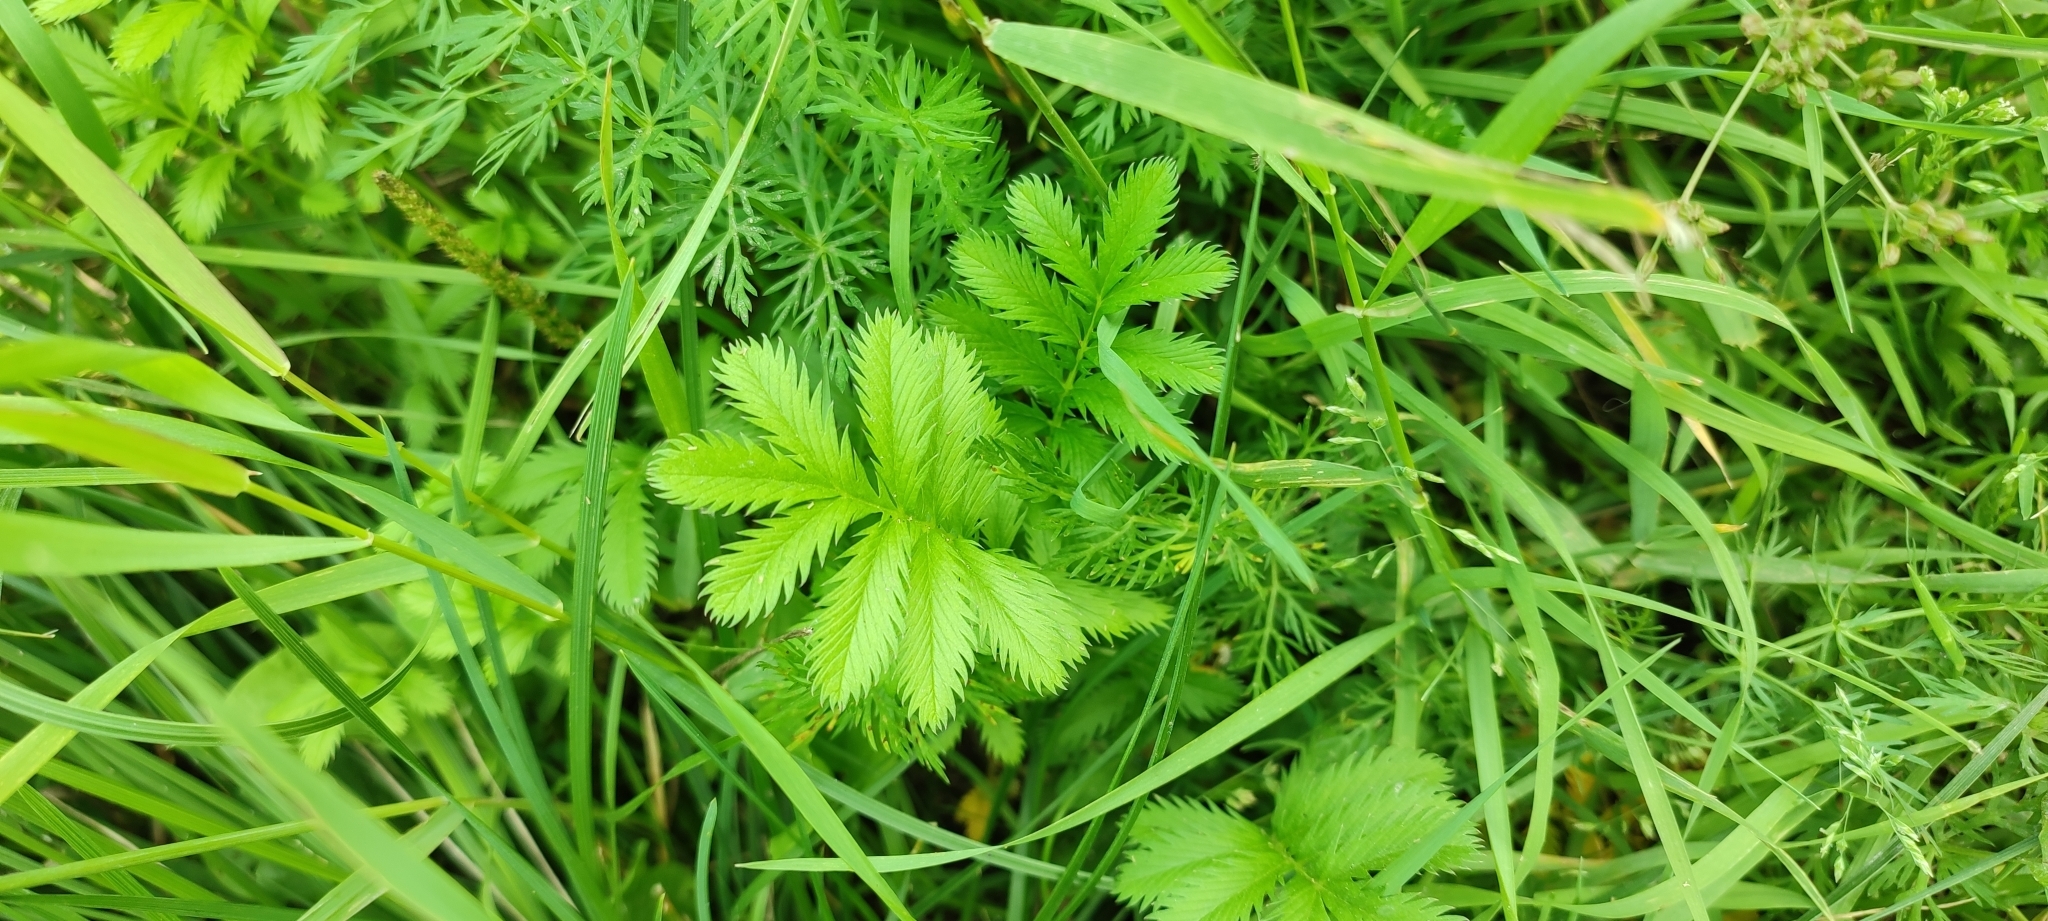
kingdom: Plantae
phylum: Tracheophyta
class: Magnoliopsida
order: Rosales
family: Rosaceae
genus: Argentina
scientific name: Argentina anserina
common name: Common silverweed
